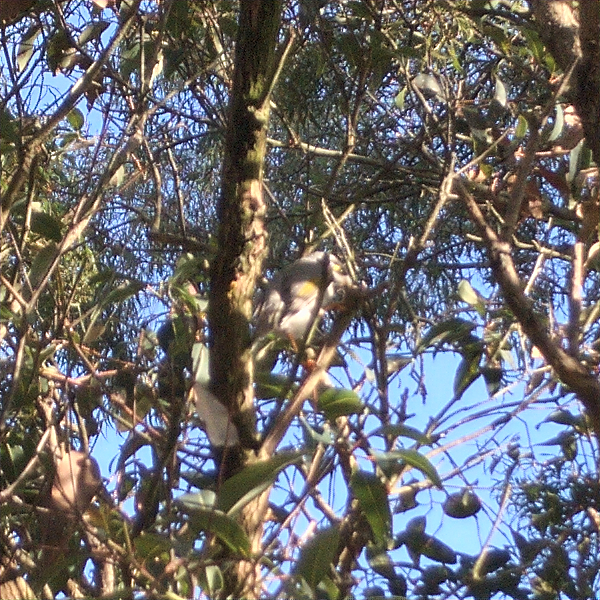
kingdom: Animalia
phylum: Chordata
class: Aves
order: Passeriformes
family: Meliphagidae
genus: Manorina
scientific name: Manorina melanocephala
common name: Noisy miner
